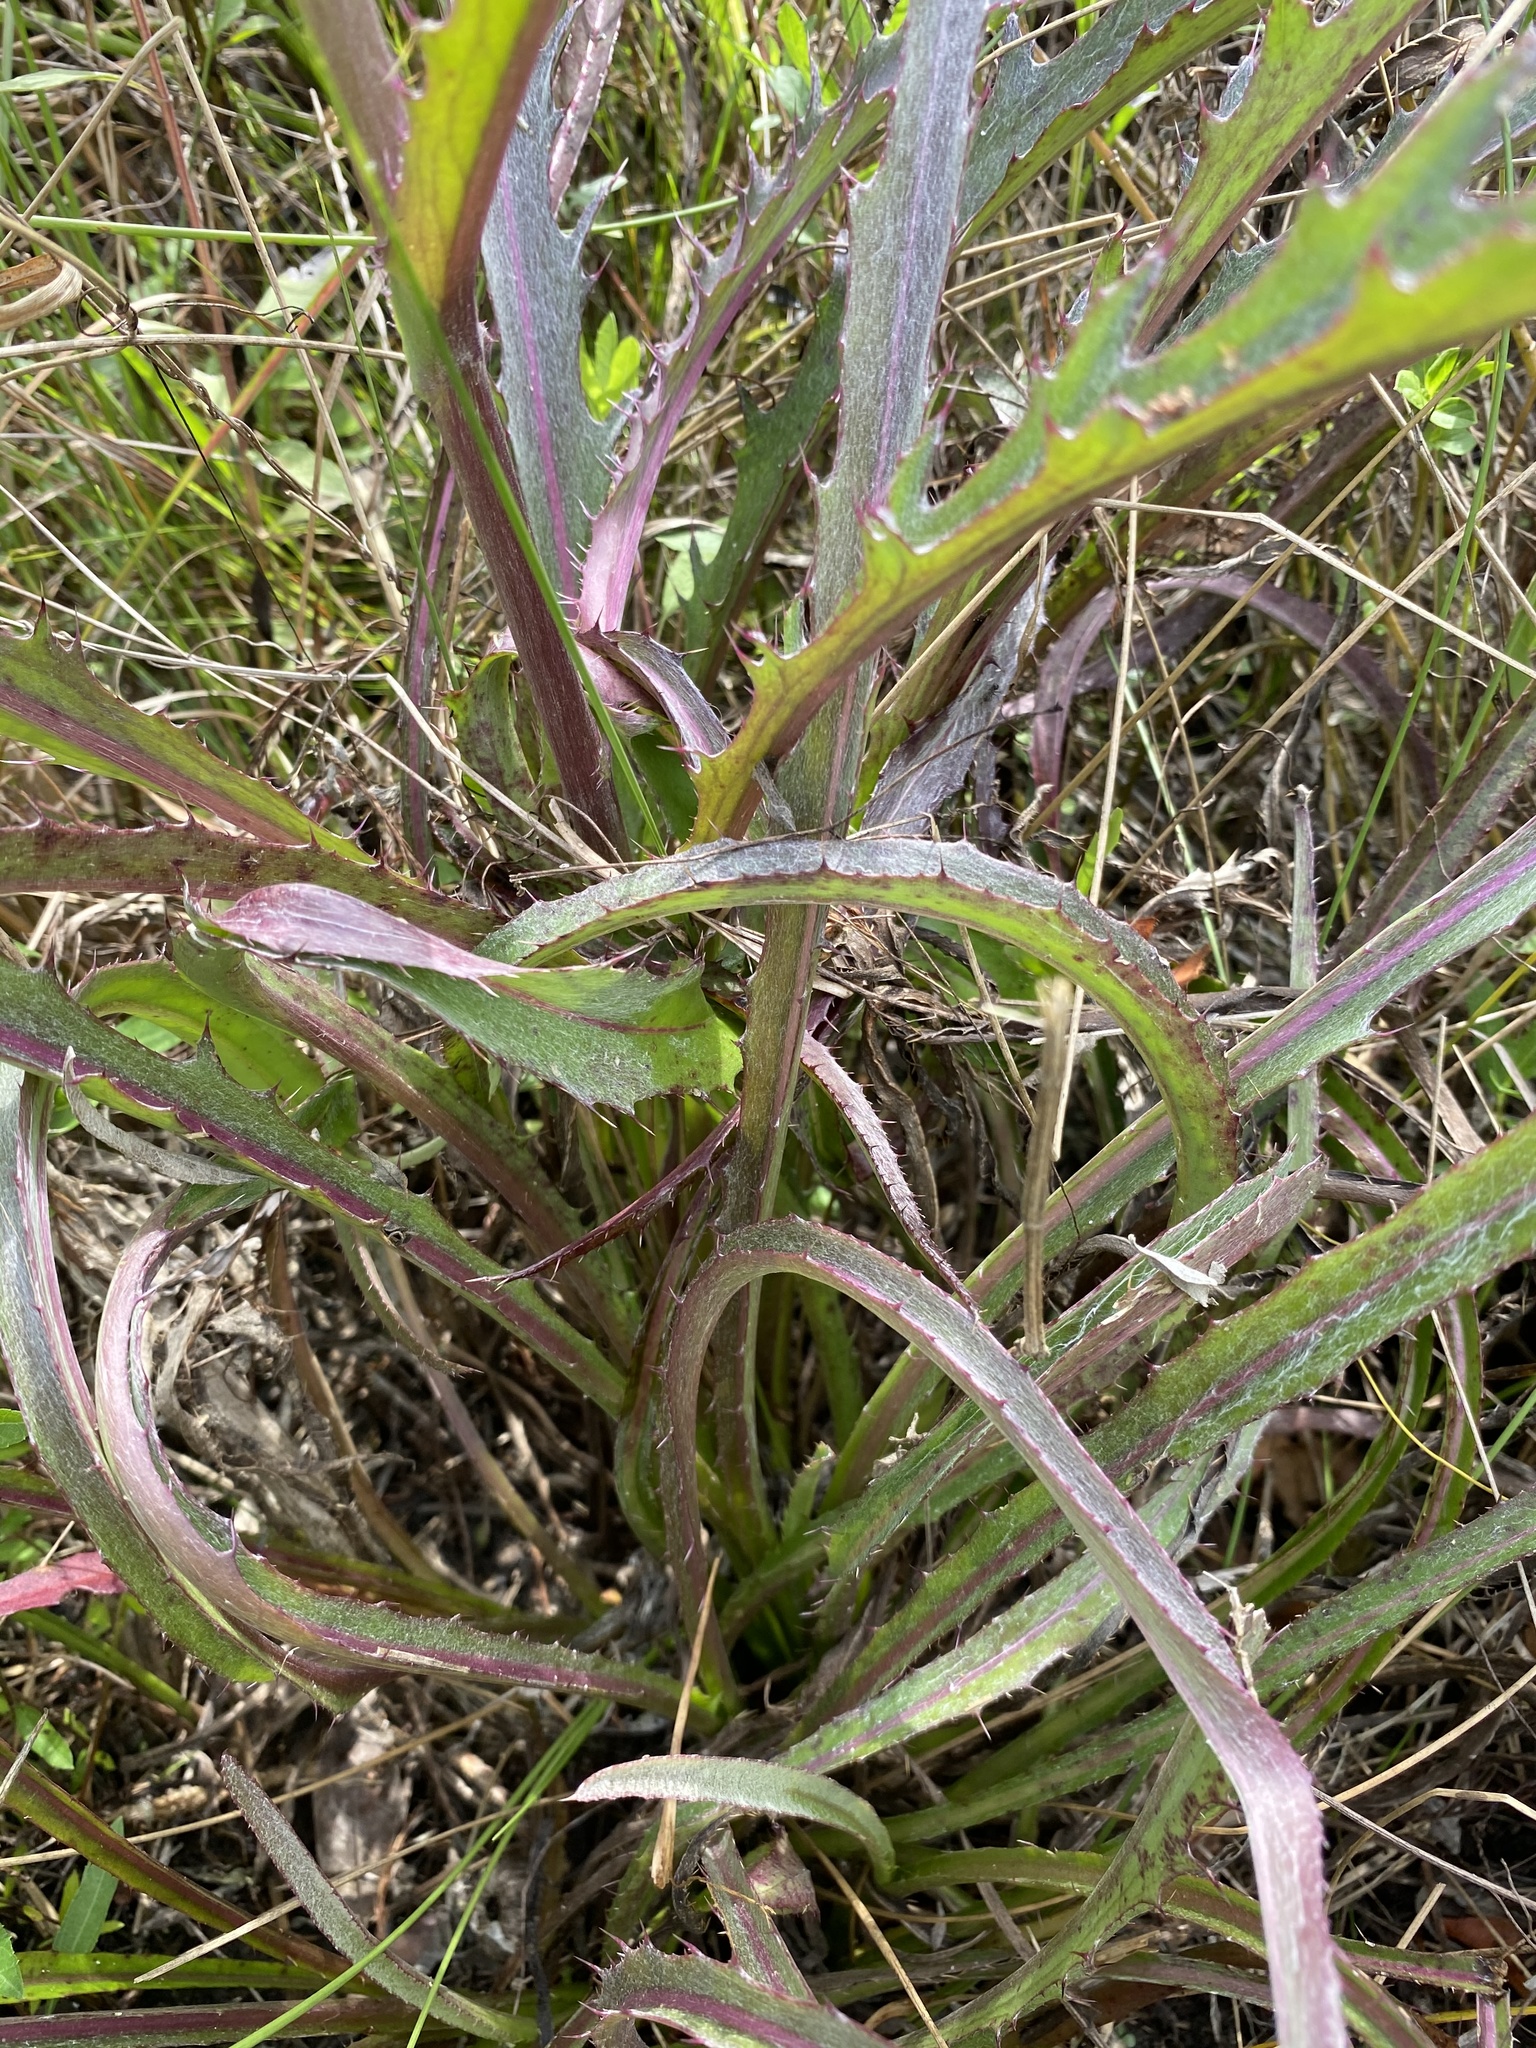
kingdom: Plantae
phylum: Tracheophyta
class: Magnoliopsida
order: Asterales
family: Asteraceae
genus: Cirsium
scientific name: Cirsium horridulum
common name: Bristly thistle
